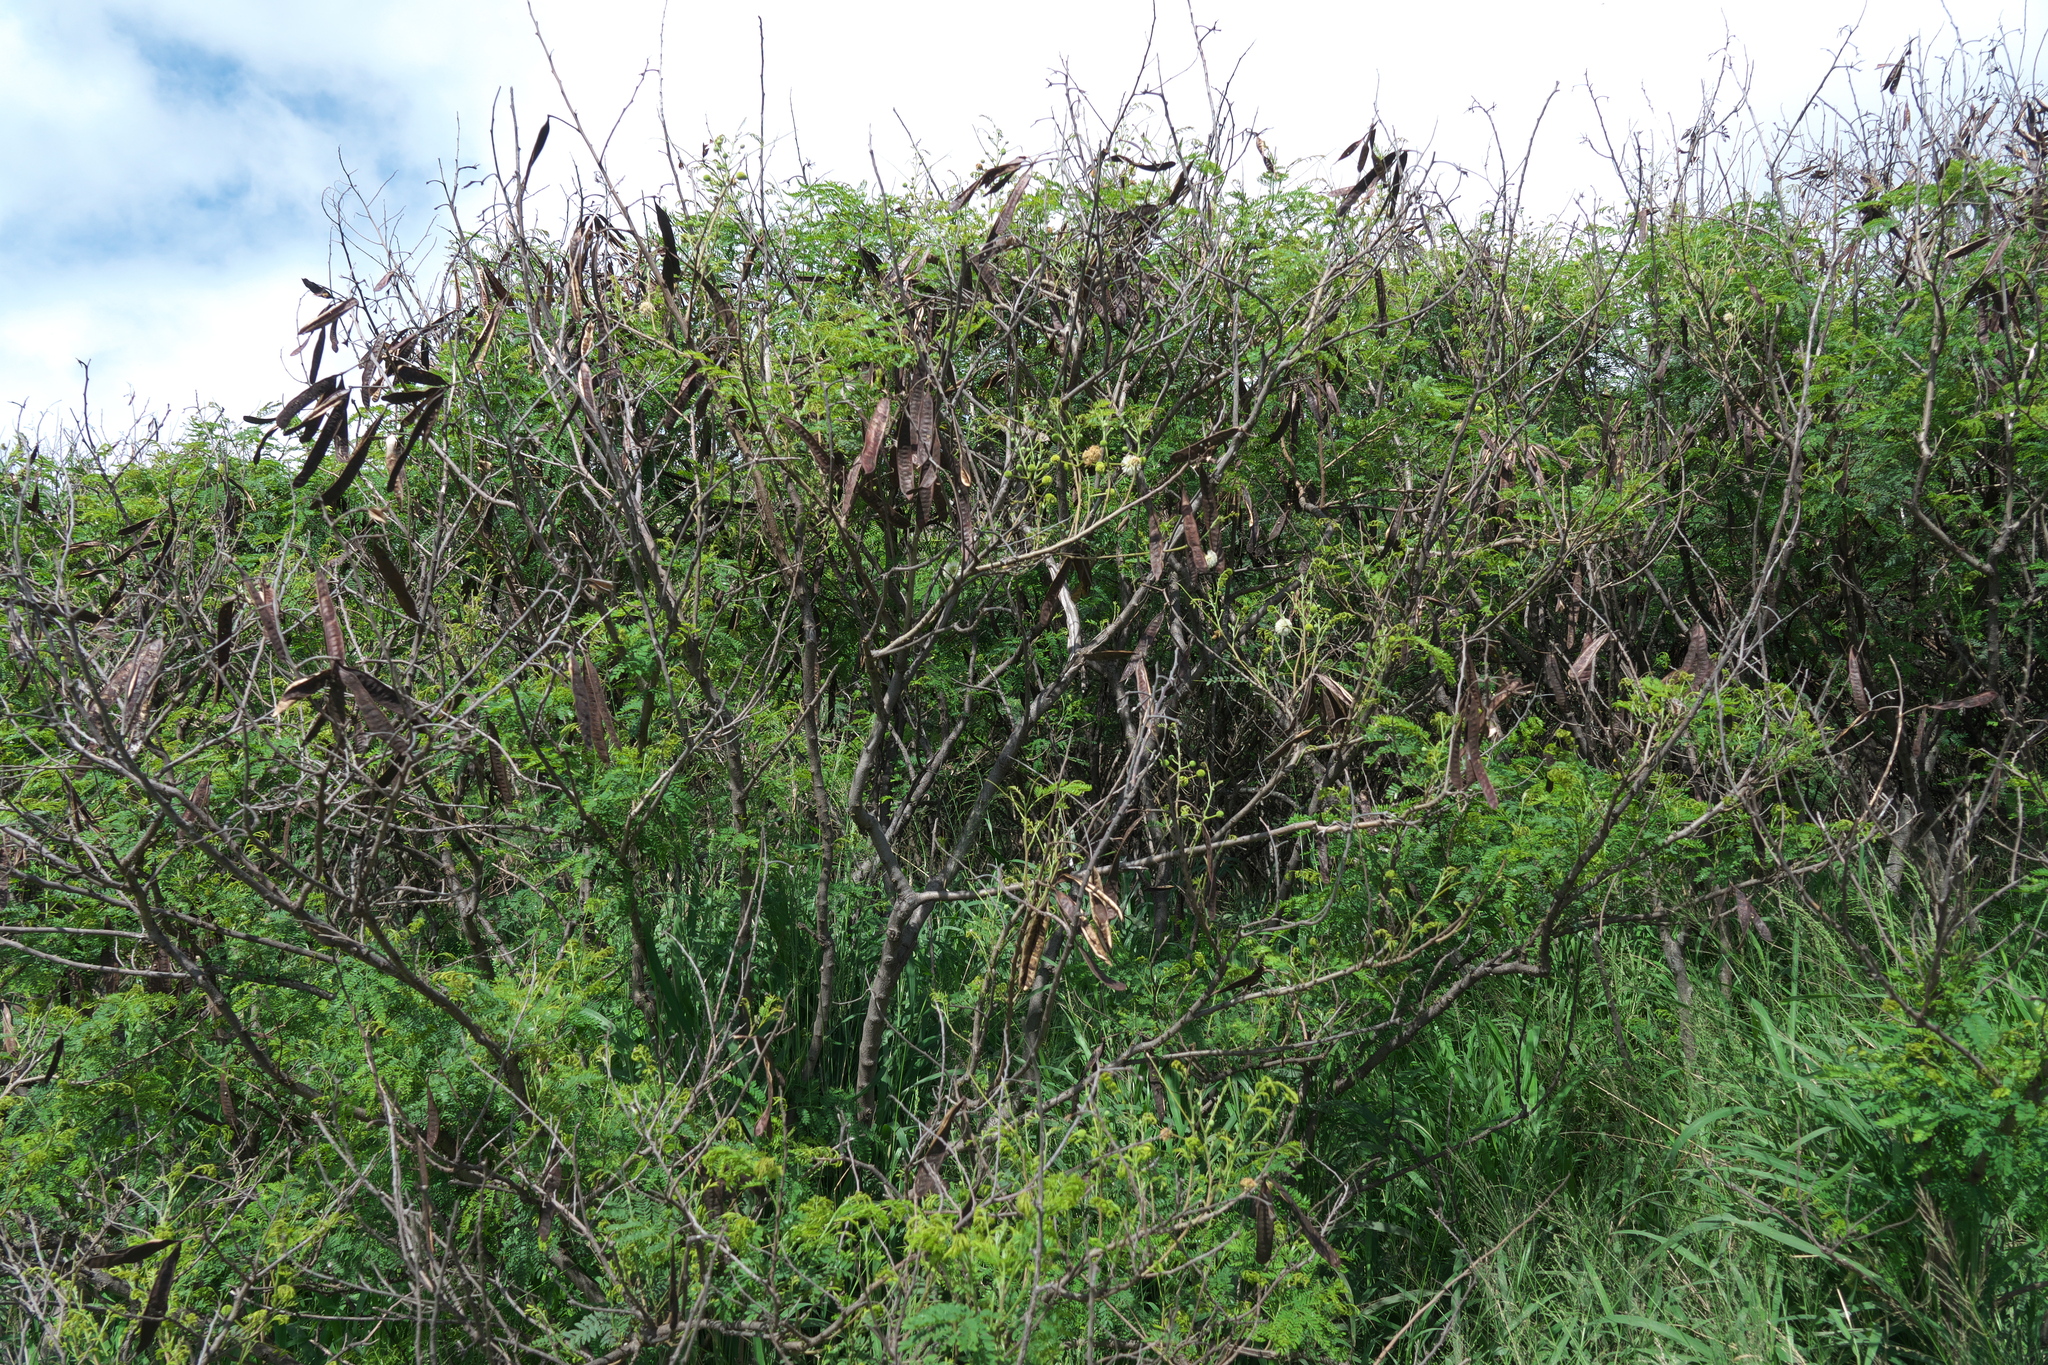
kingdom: Plantae
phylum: Tracheophyta
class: Magnoliopsida
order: Fabales
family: Fabaceae
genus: Leucaena
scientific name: Leucaena leucocephala
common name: White leadtree
